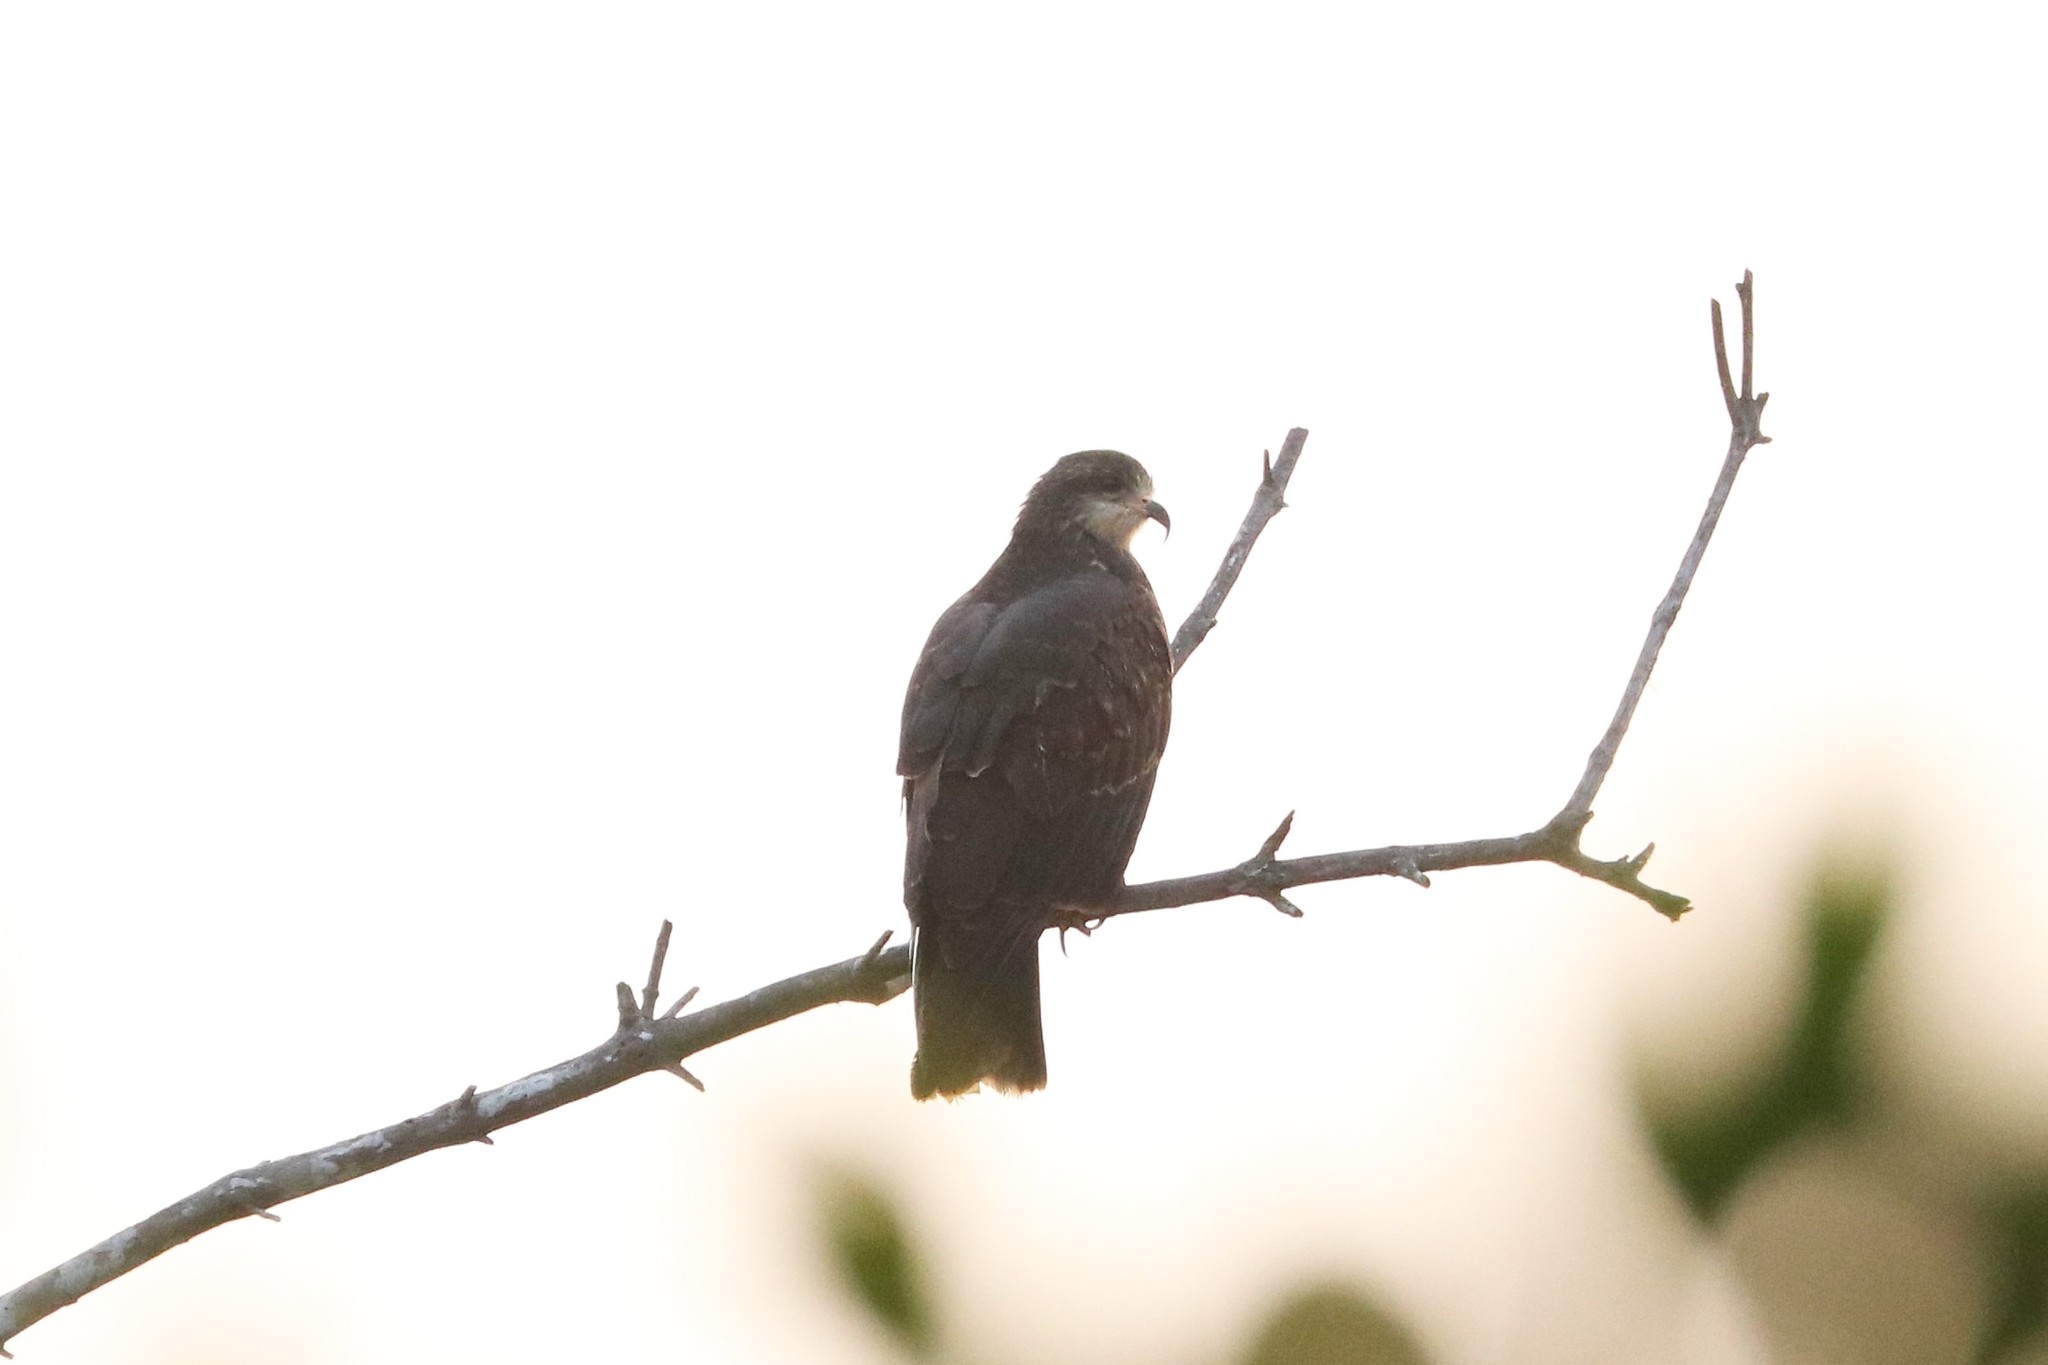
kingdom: Animalia
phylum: Chordata
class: Aves
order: Accipitriformes
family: Accipitridae
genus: Rostrhamus
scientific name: Rostrhamus sociabilis
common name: Snail kite
